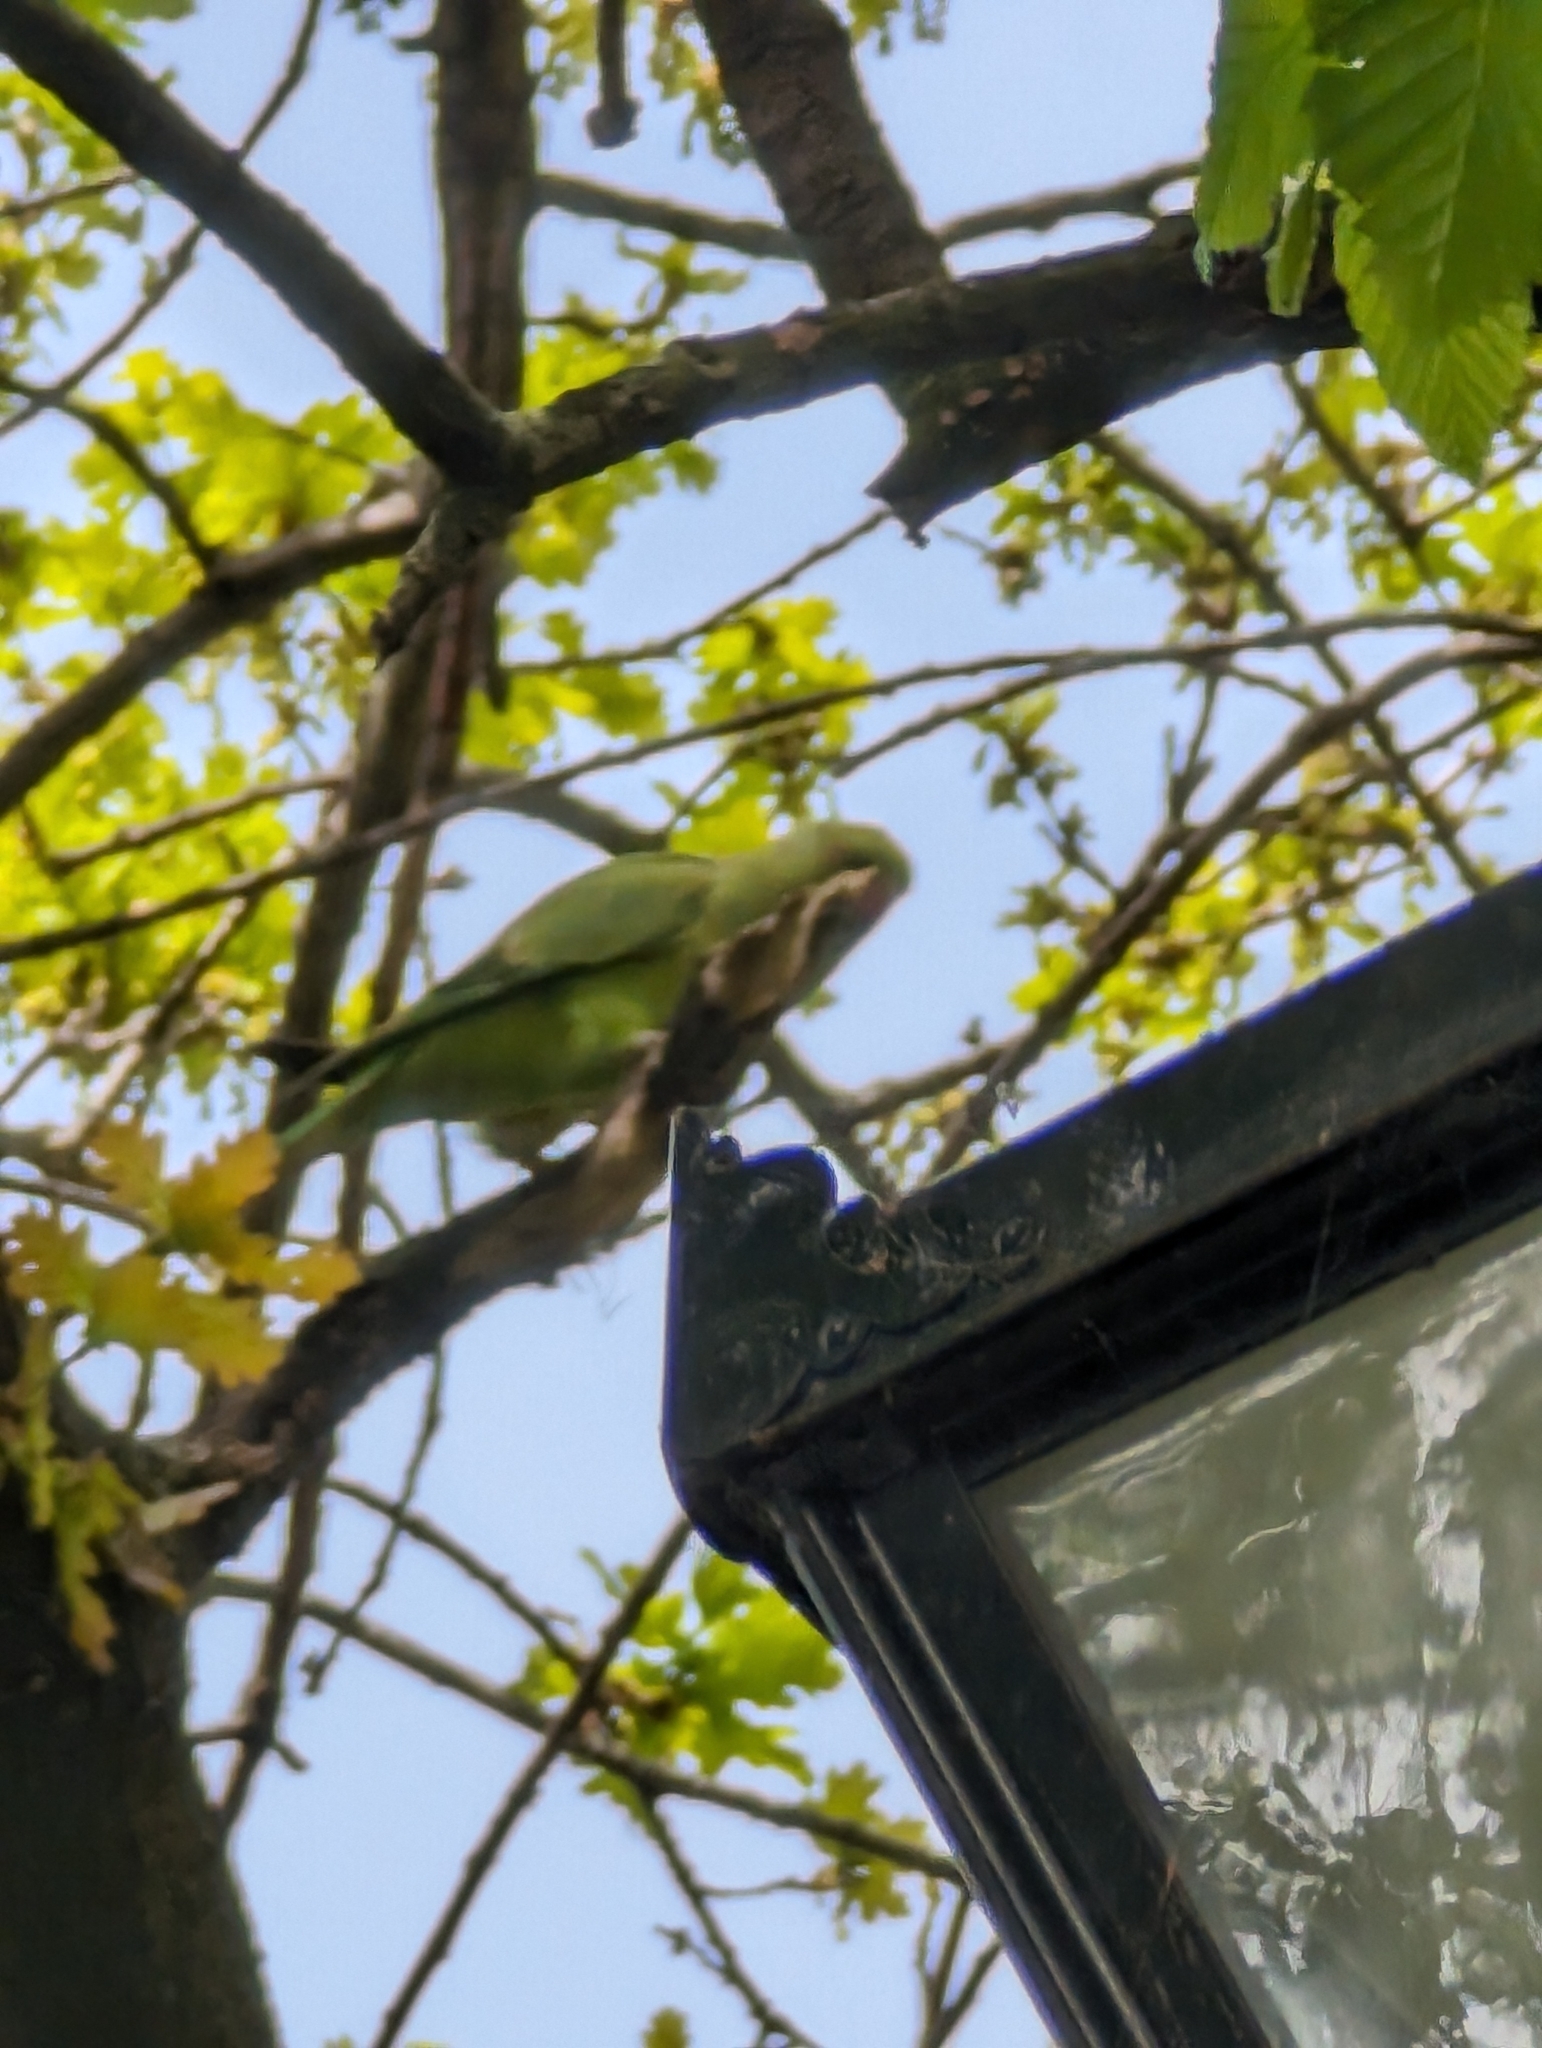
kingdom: Animalia
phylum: Chordata
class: Aves
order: Psittaciformes
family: Psittacidae
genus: Psittacula
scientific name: Psittacula krameri
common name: Rose-ringed parakeet
